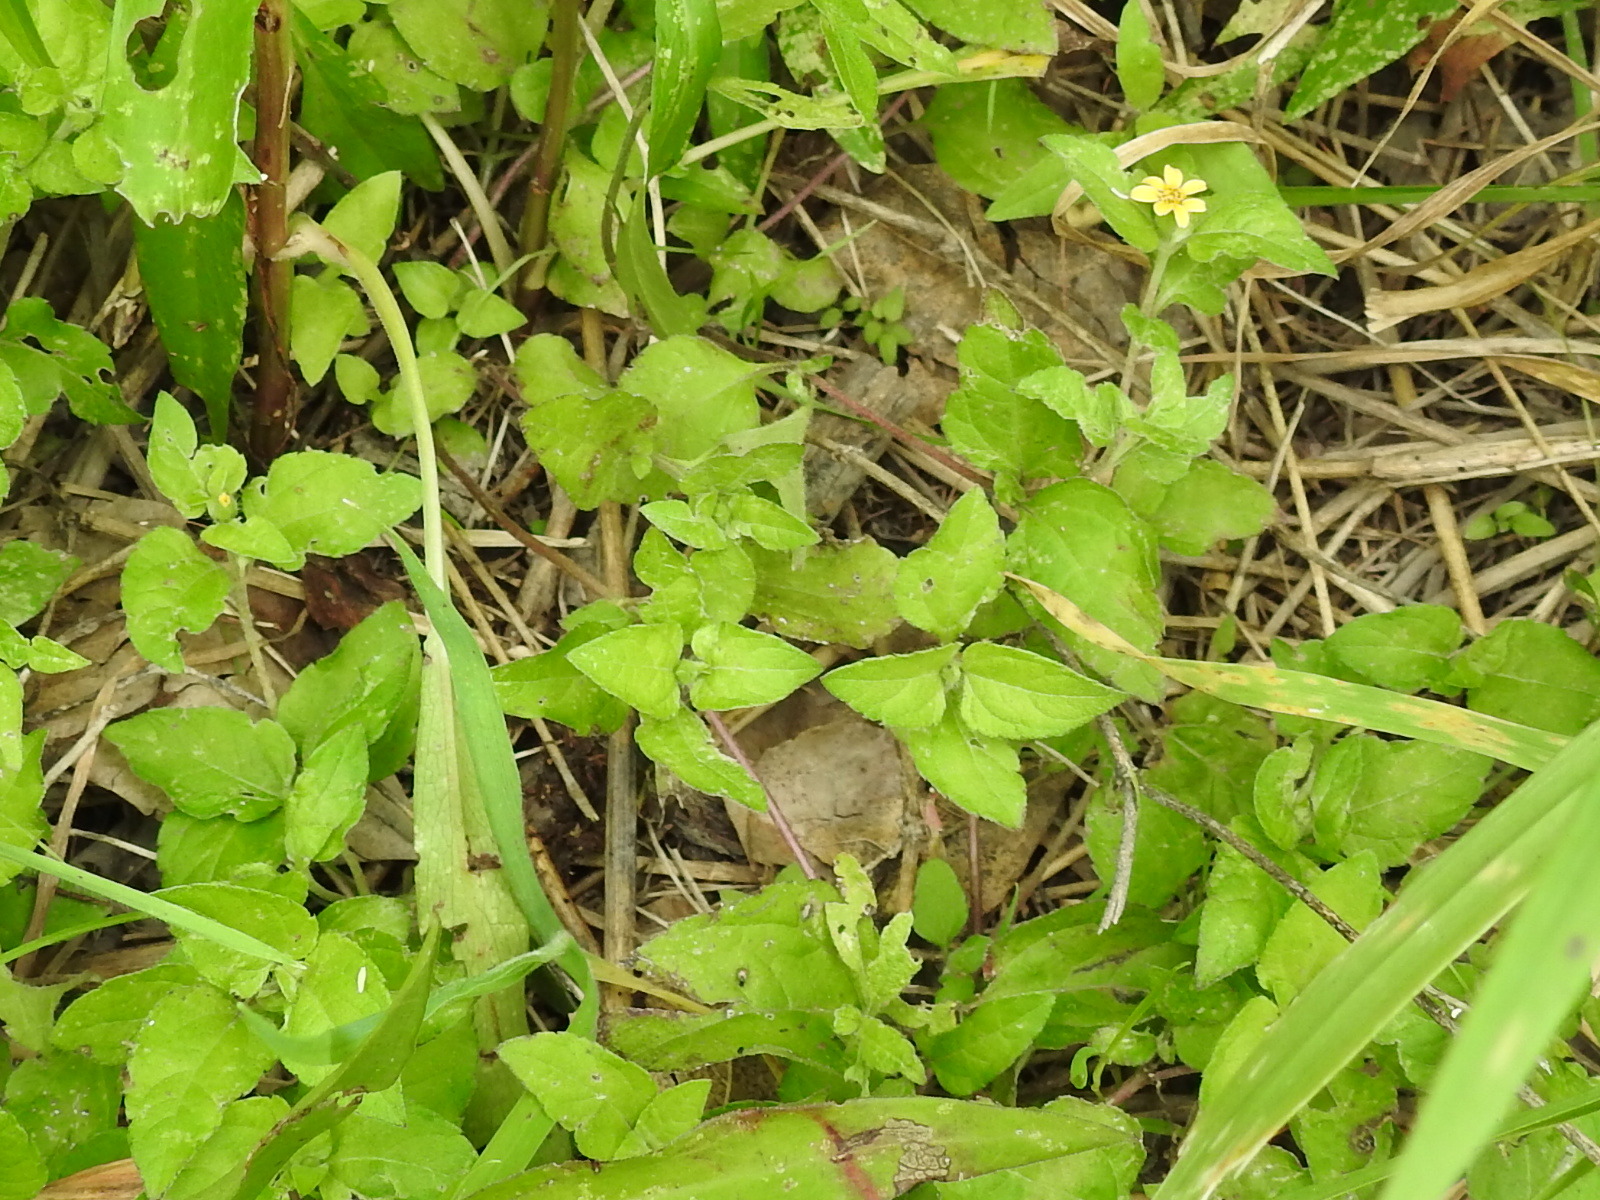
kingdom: Plantae
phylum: Tracheophyta
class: Magnoliopsida
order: Asterales
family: Asteraceae
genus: Calyptocarpus
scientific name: Calyptocarpus vialis
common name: Straggler daisy
